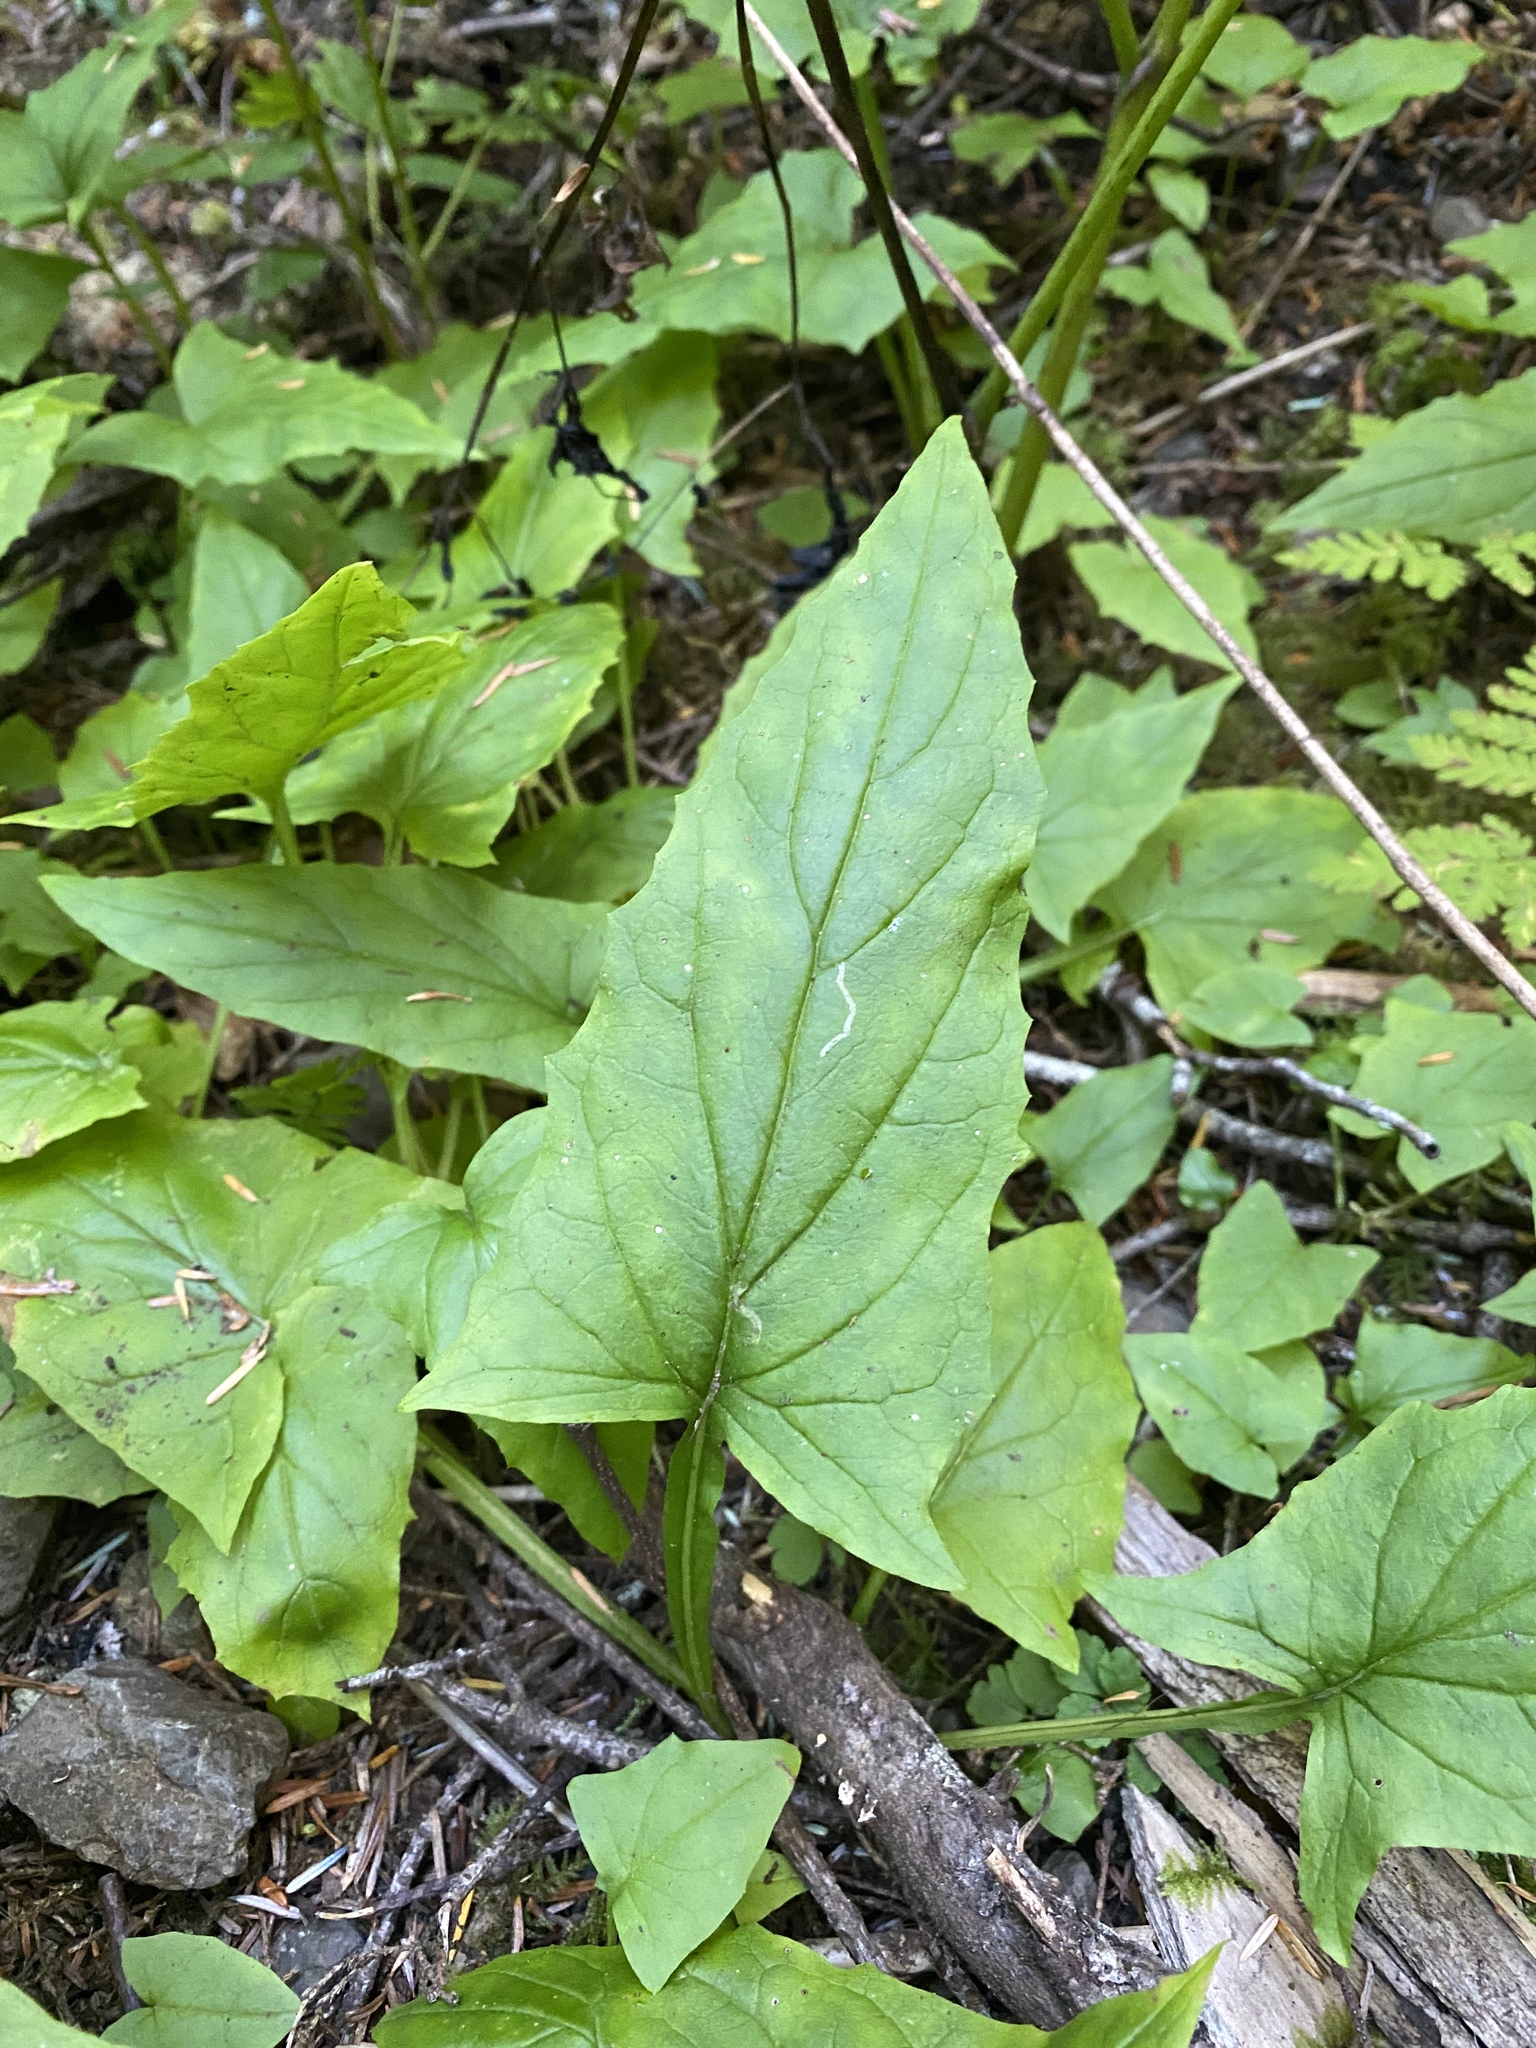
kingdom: Plantae
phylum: Tracheophyta
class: Magnoliopsida
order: Asterales
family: Asteraceae
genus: Nabalus
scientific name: Nabalus hastatus
